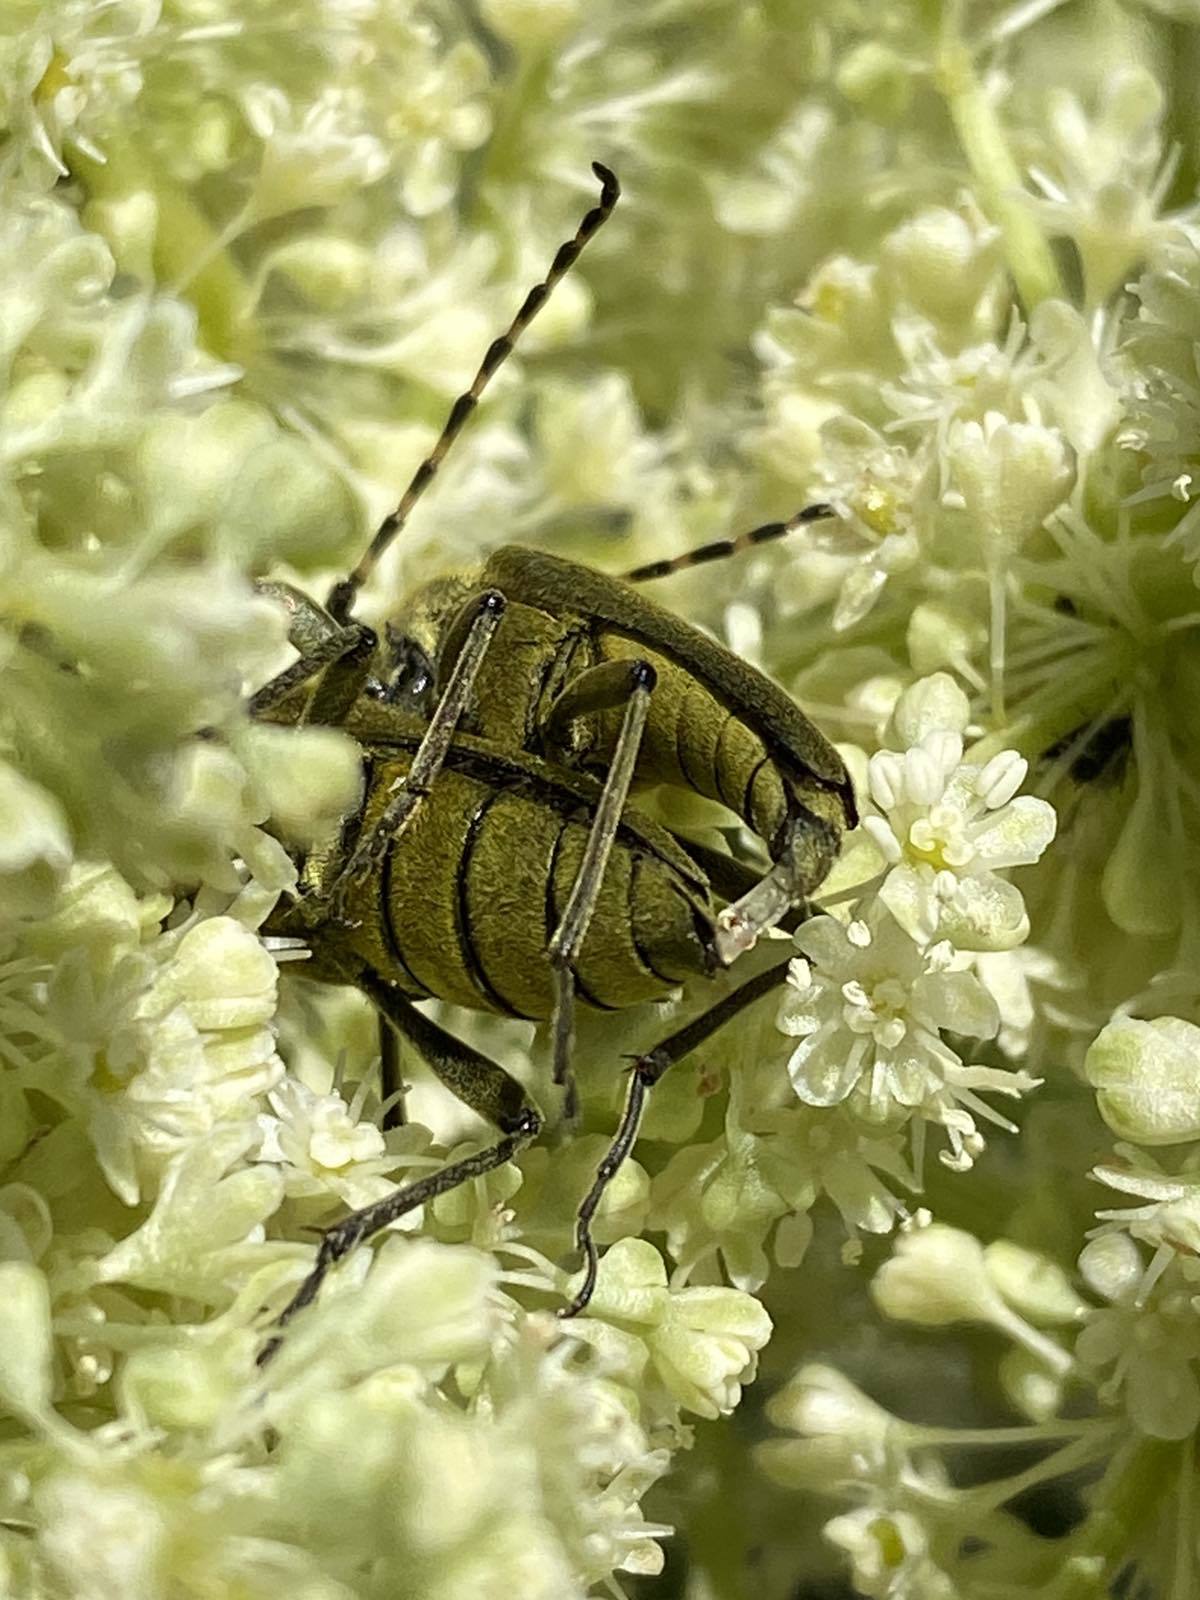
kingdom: Animalia
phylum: Arthropoda
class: Insecta
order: Coleoptera
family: Cerambycidae
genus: Lepturobosca
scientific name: Lepturobosca virens
